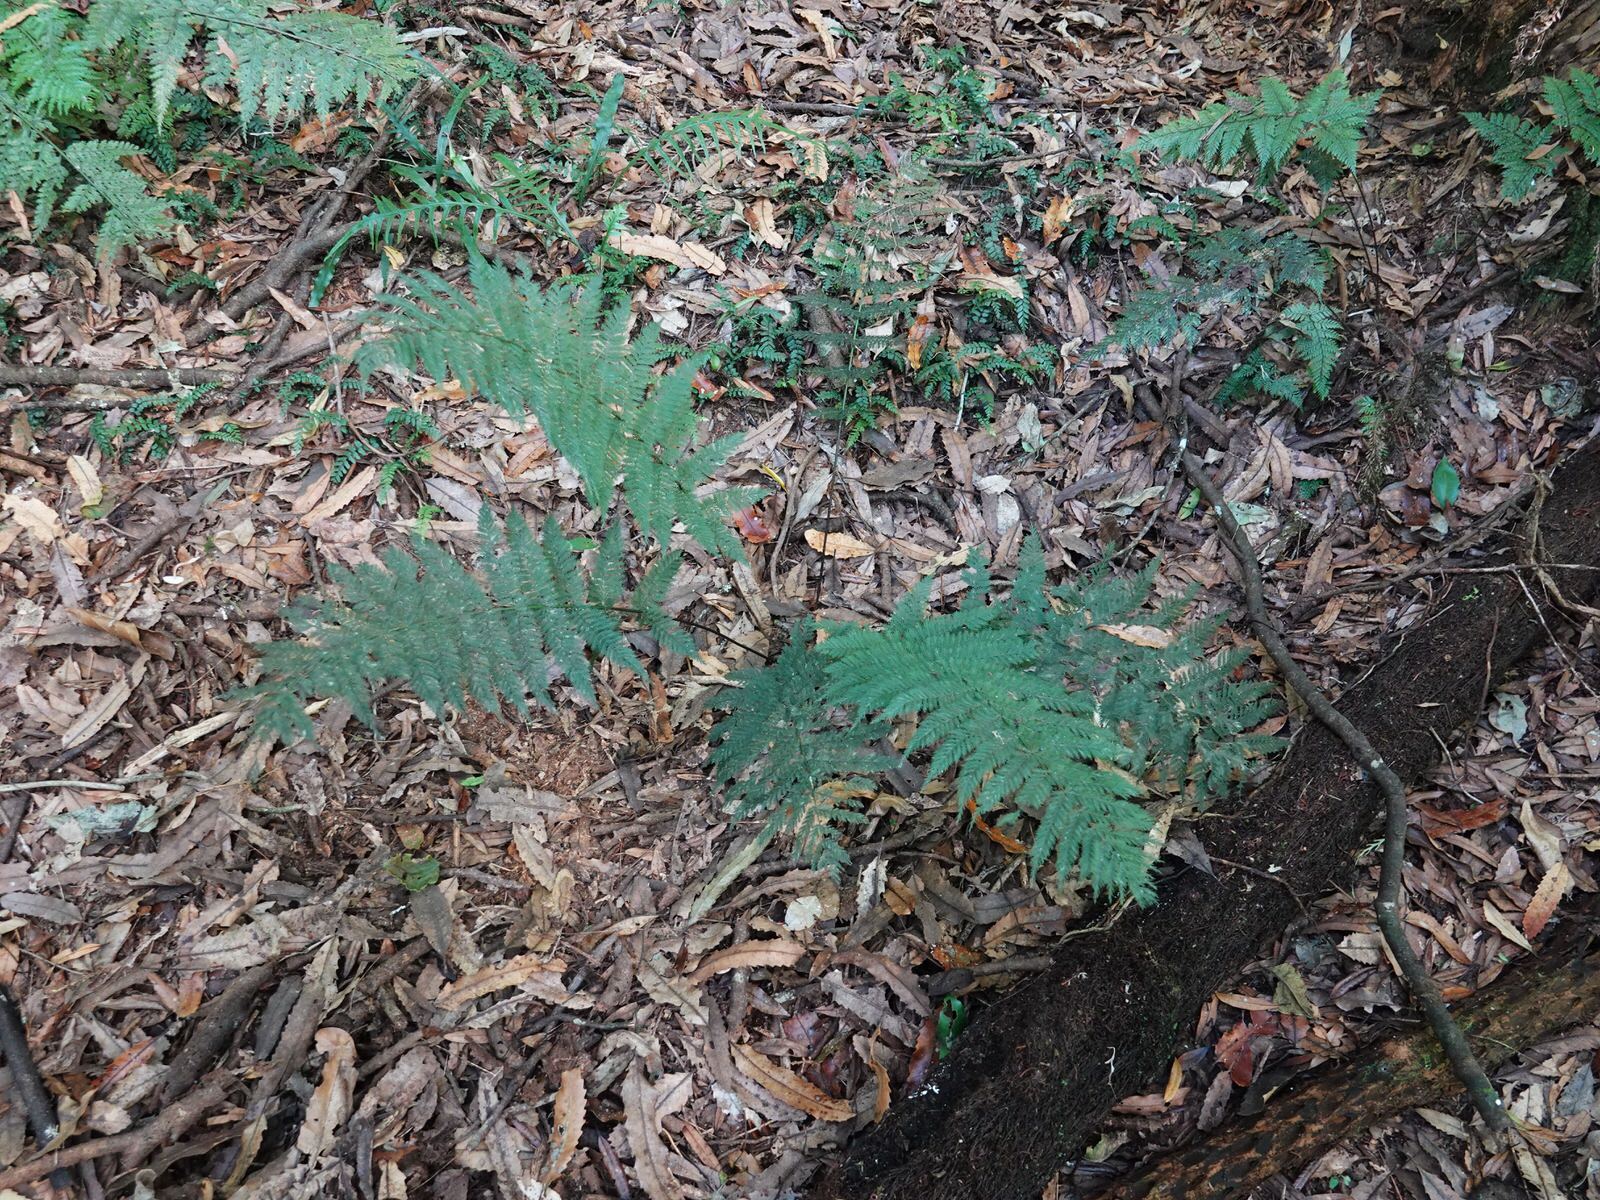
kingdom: Plantae
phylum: Tracheophyta
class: Polypodiopsida
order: Osmundales
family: Osmundaceae
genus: Leptopteris
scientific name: Leptopteris hymenophylloides
